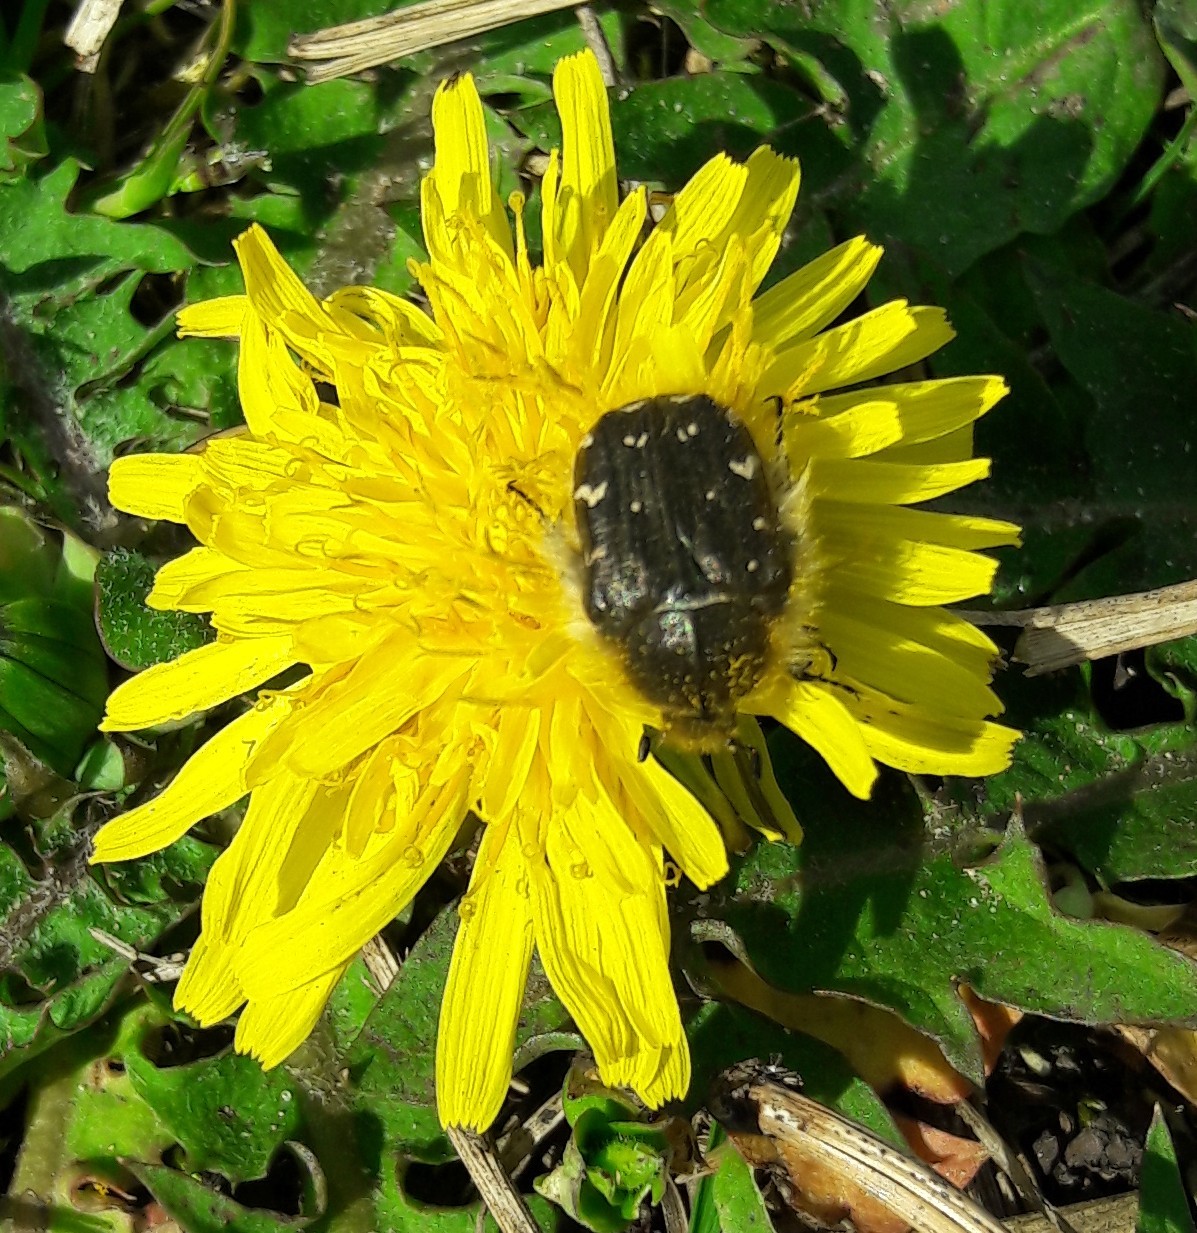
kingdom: Animalia
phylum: Arthropoda
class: Insecta
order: Coleoptera
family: Scarabaeidae
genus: Tropinota
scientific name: Tropinota hirta
